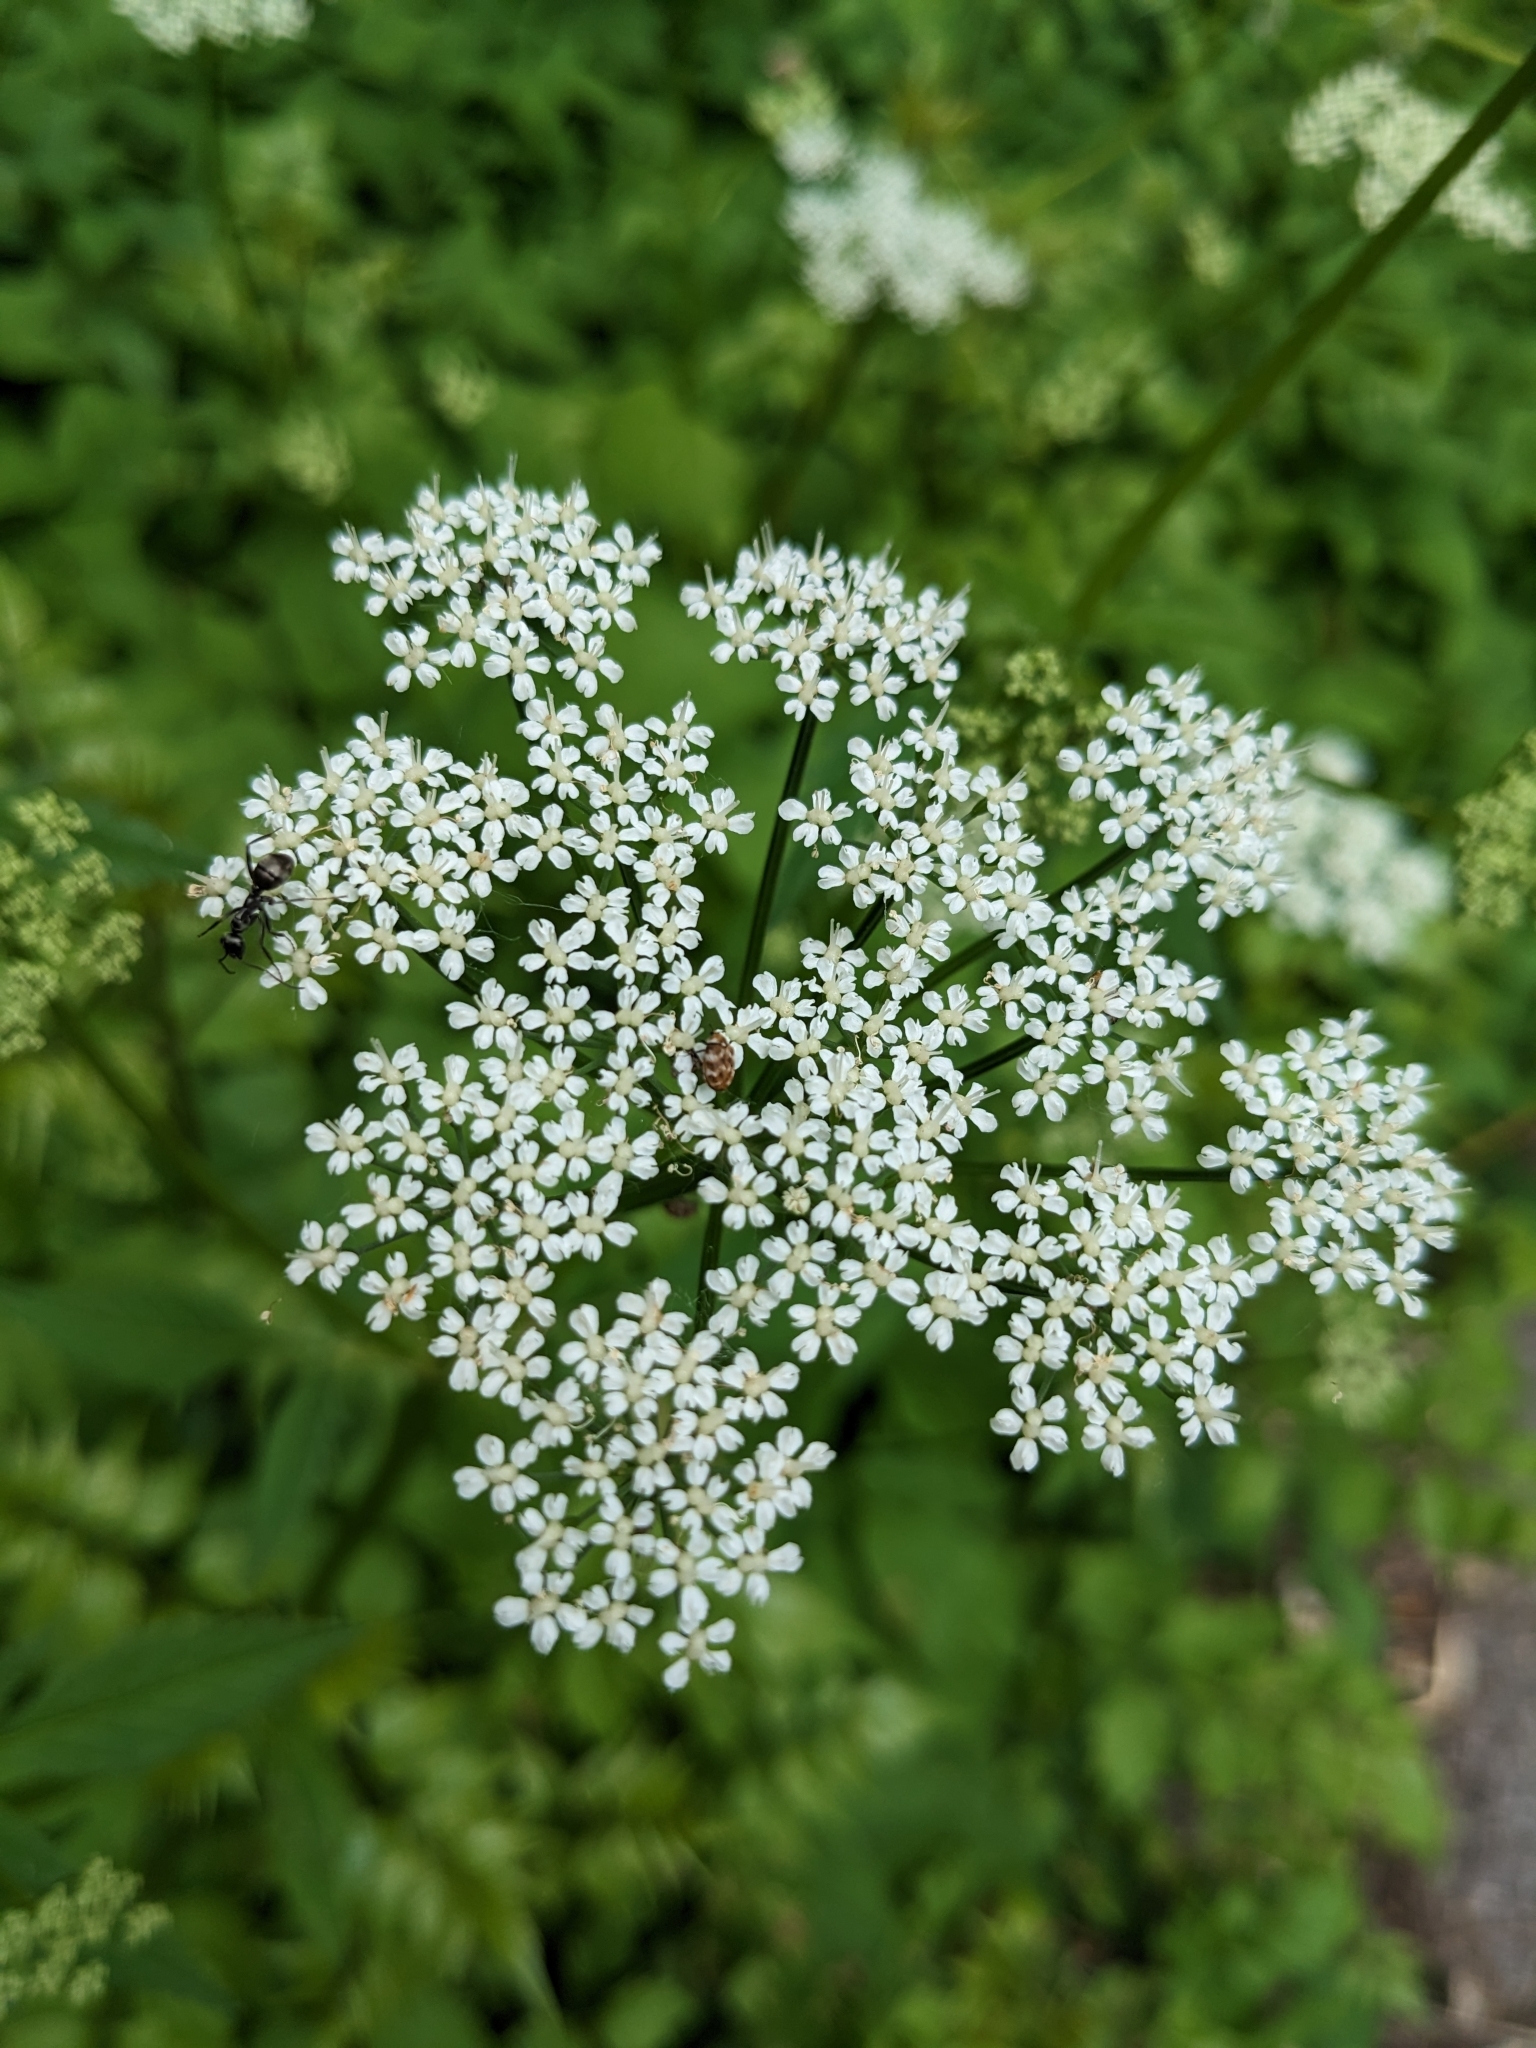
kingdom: Animalia
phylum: Arthropoda
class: Insecta
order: Coleoptera
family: Dermestidae
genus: Anthrenus
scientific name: Anthrenus verbasci
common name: Varied carpet beetle
